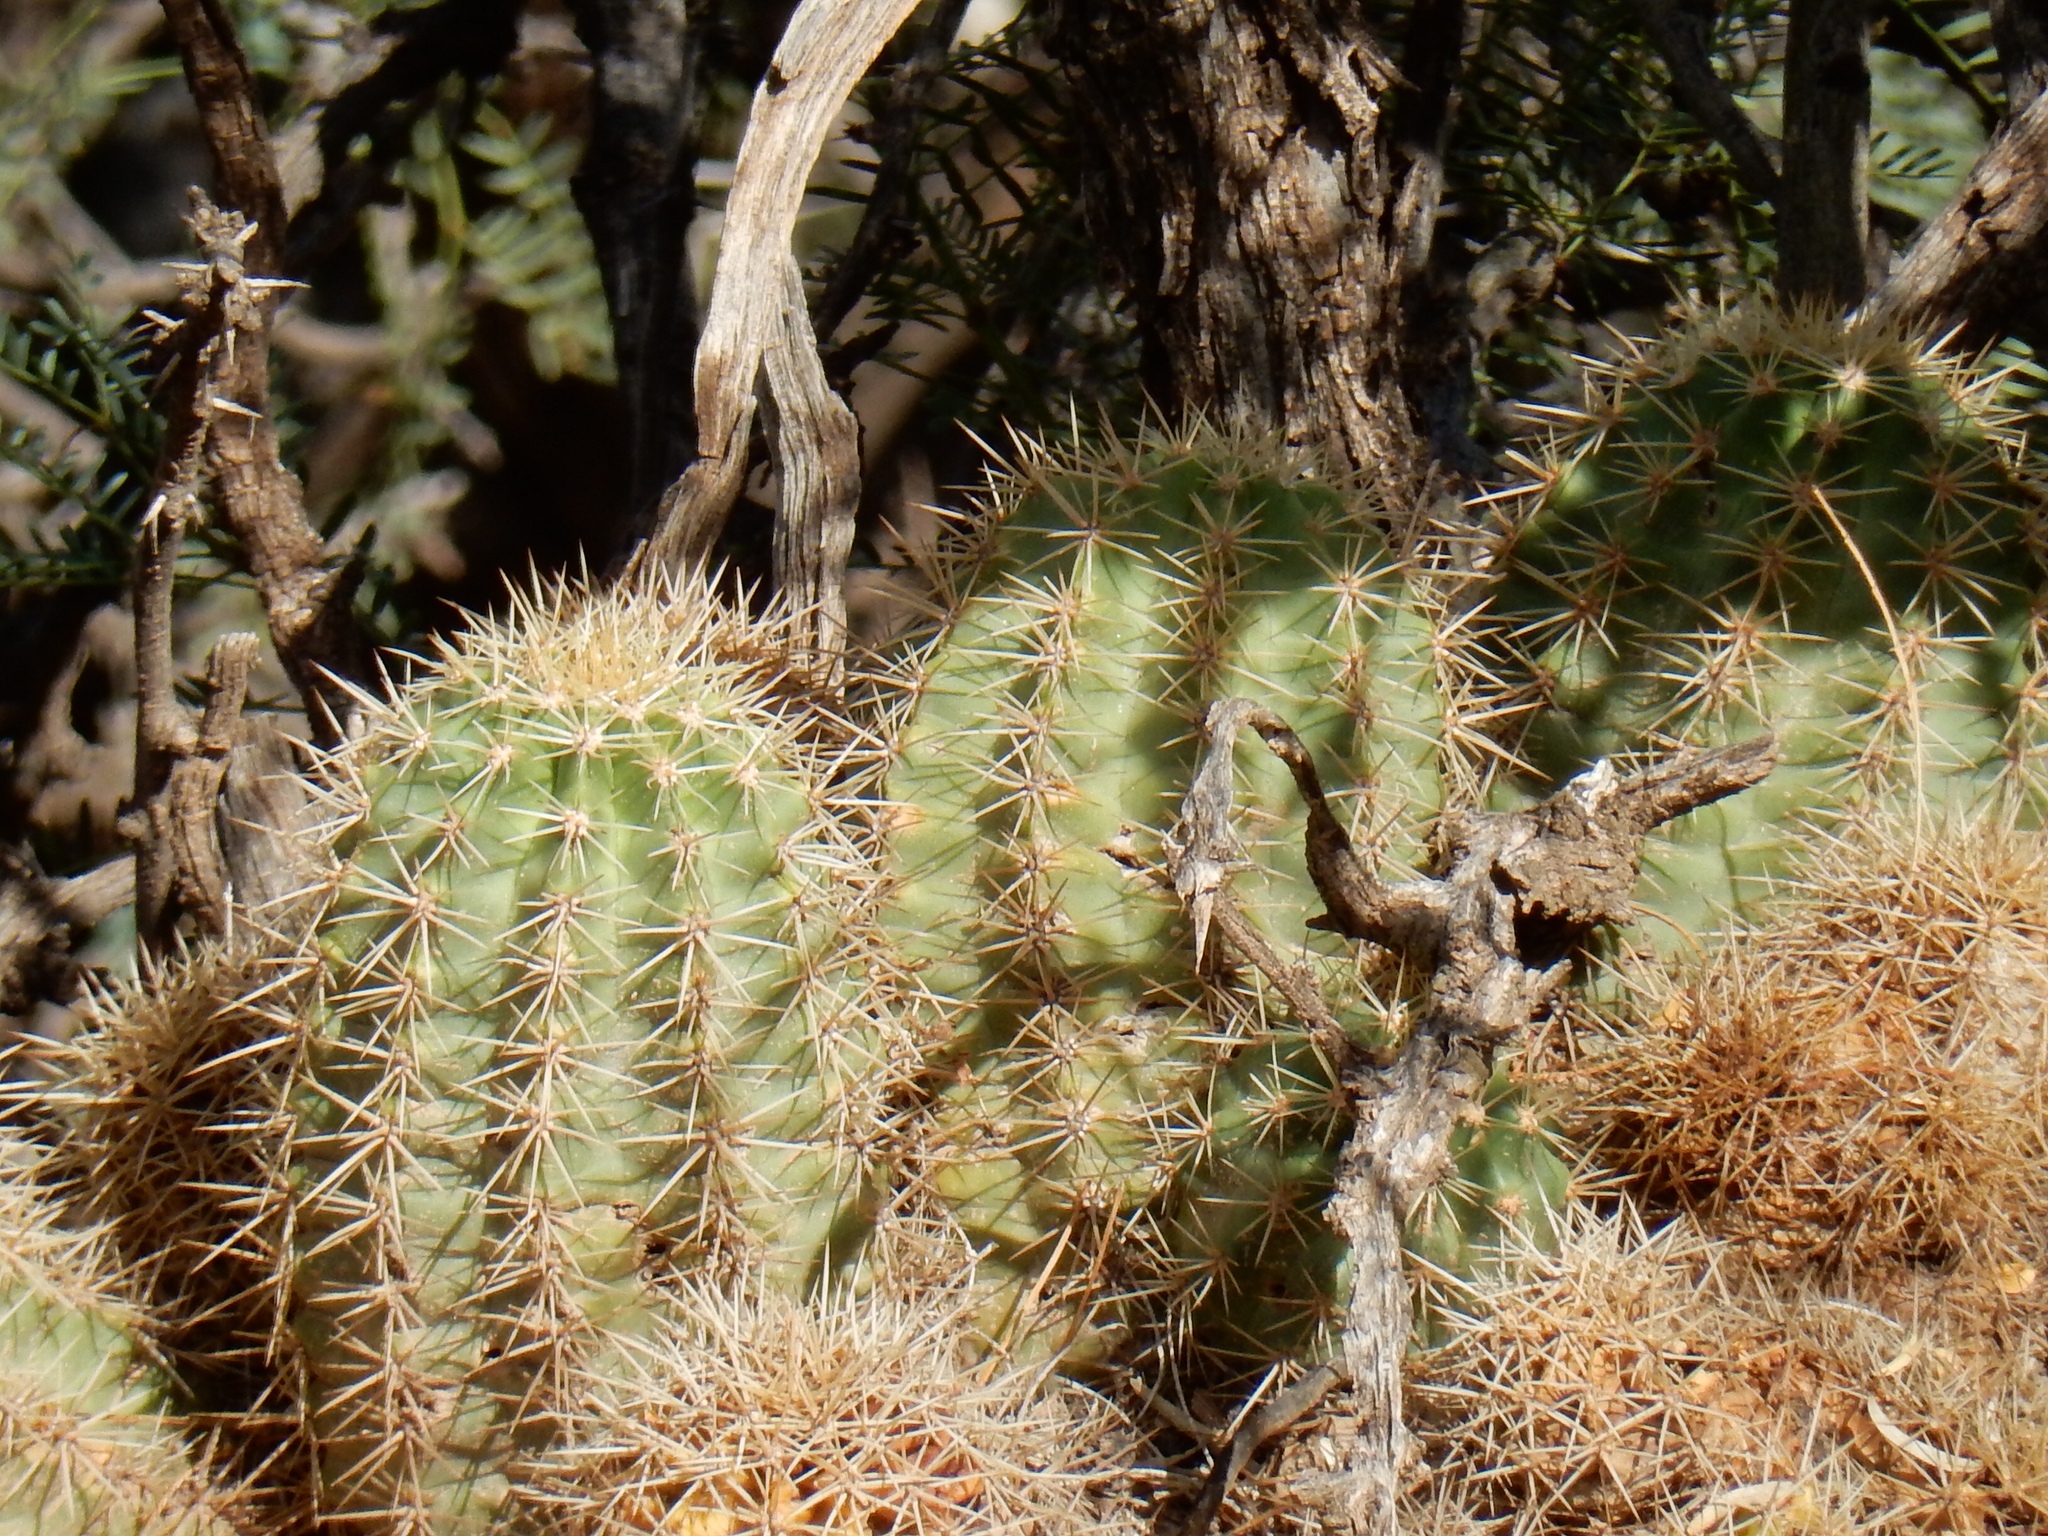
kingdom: Plantae
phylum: Tracheophyta
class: Magnoliopsida
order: Caryophyllales
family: Cactaceae
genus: Echinocereus
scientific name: Echinocereus coccineus
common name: Scarlet hedgehog cactus
